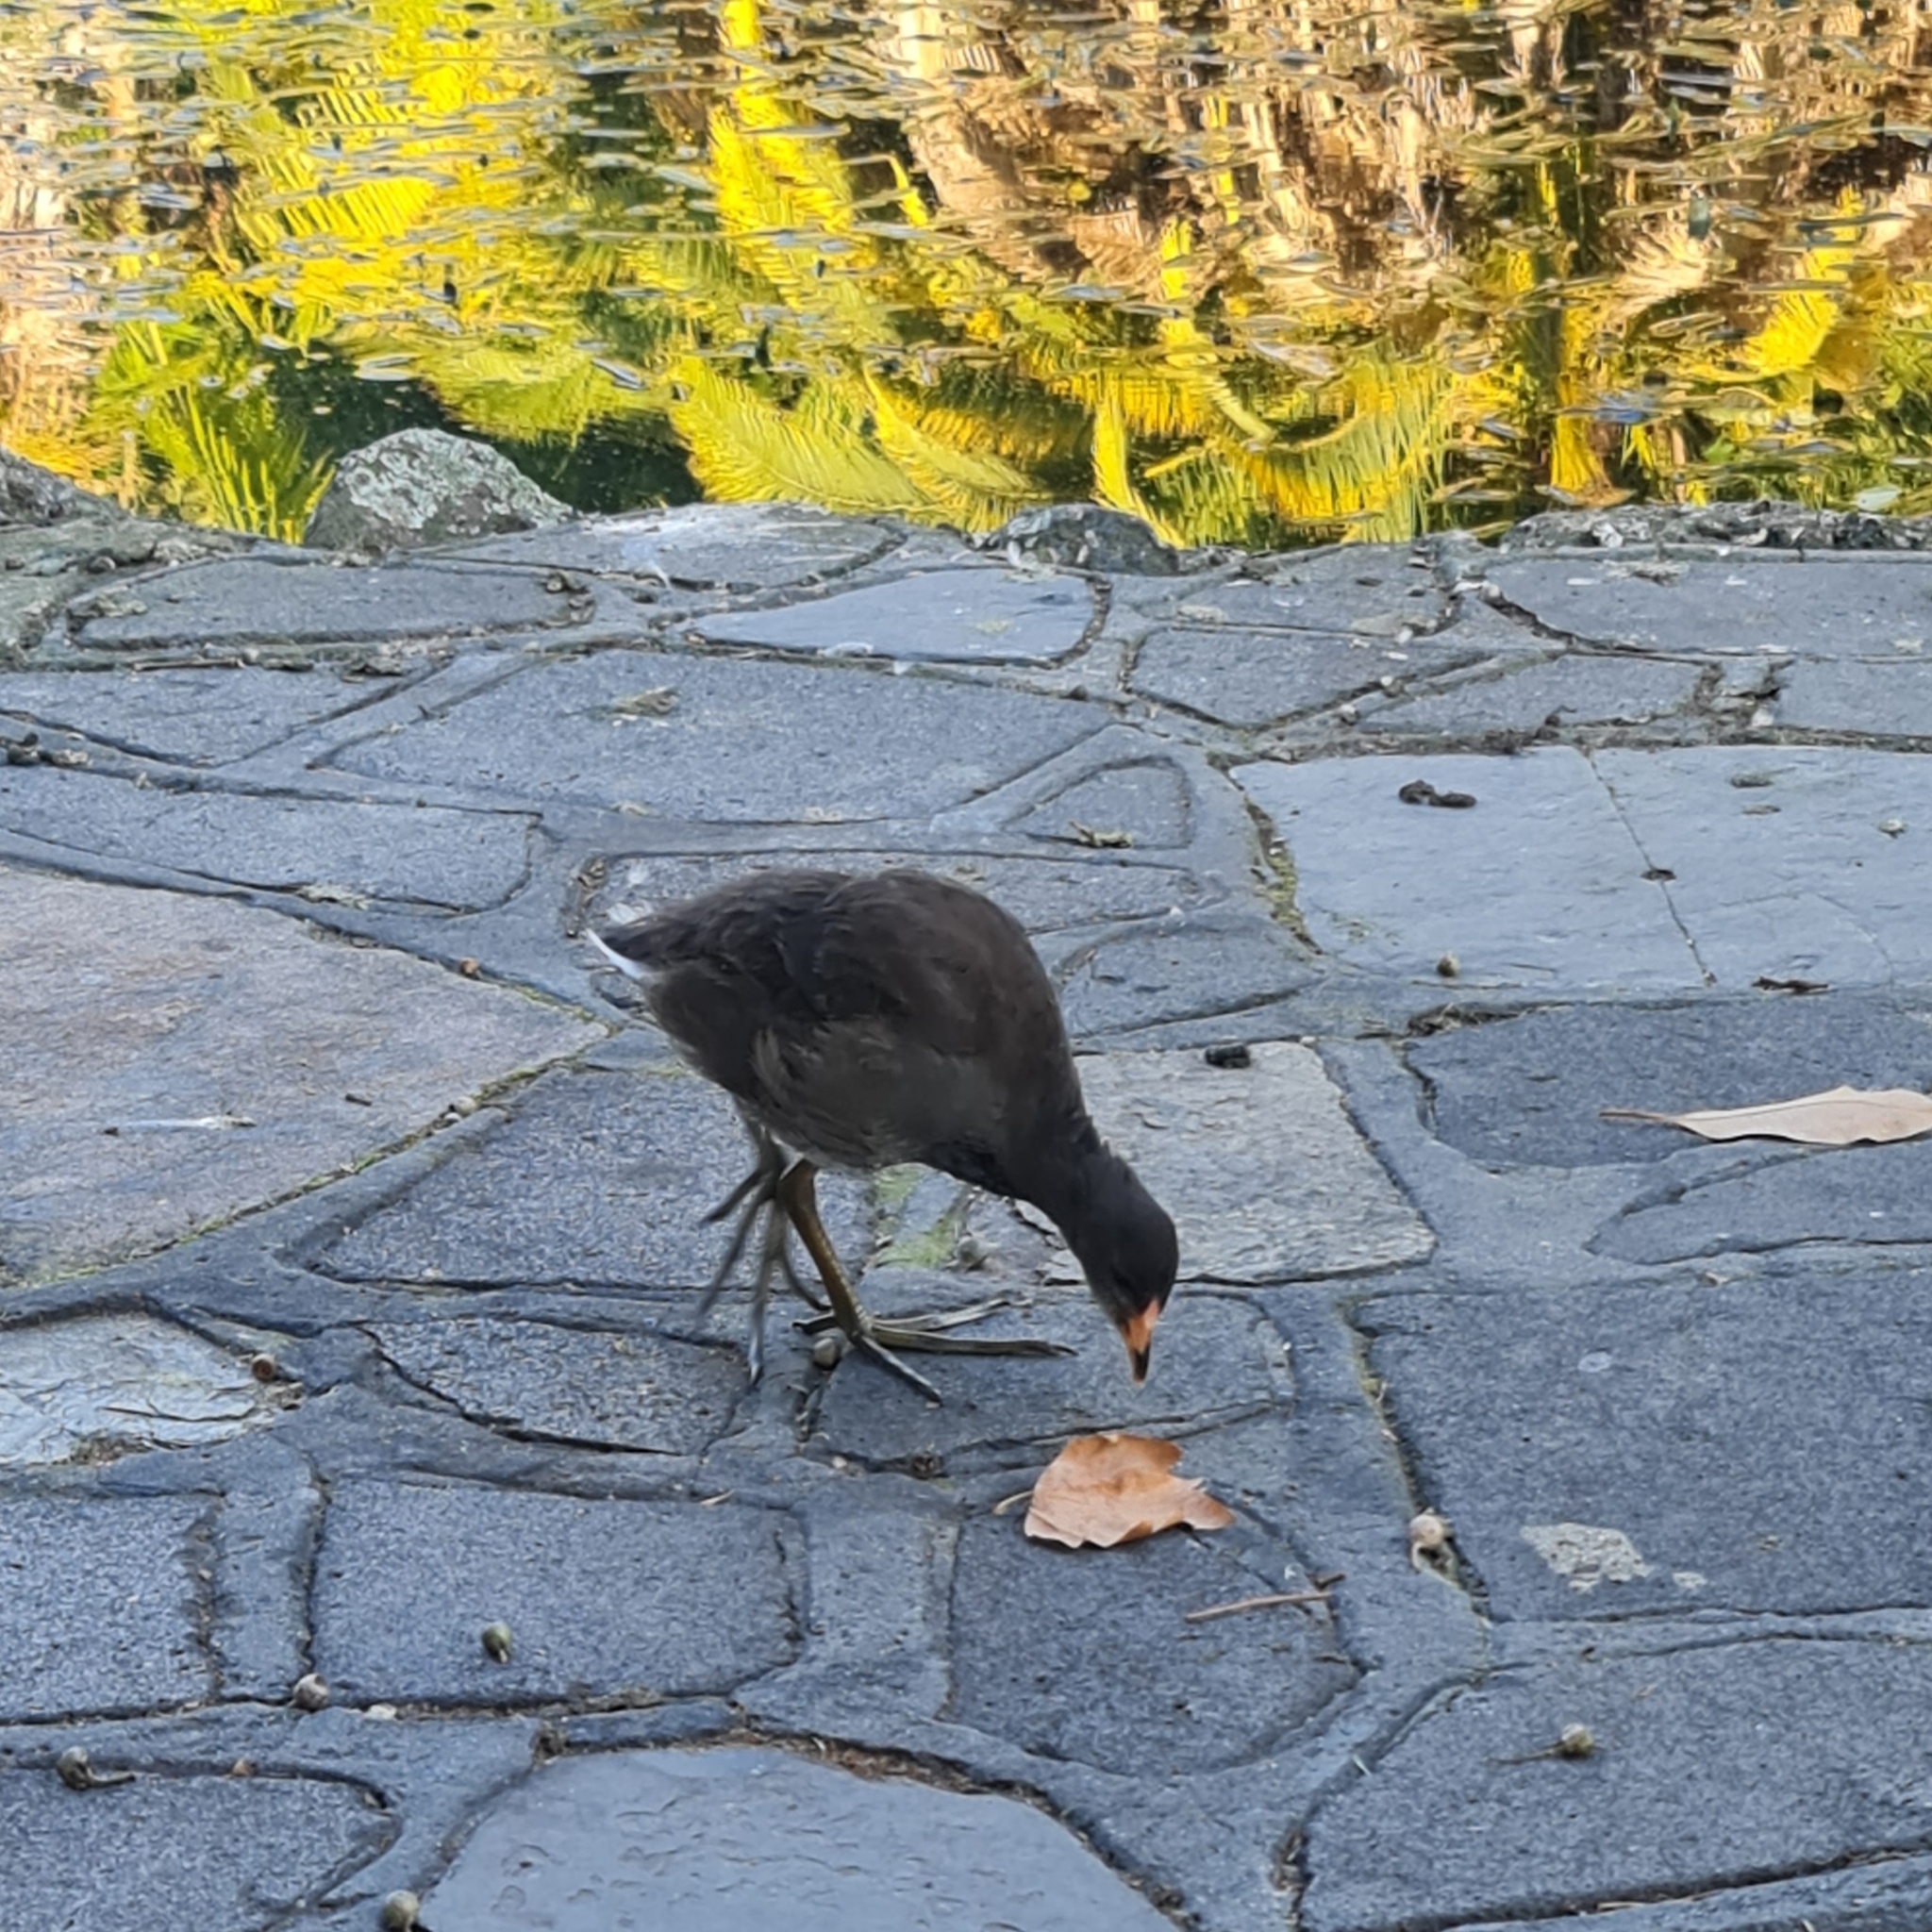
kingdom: Animalia
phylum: Chordata
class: Aves
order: Gruiformes
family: Rallidae
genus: Gallinula
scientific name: Gallinula tenebrosa
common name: Dusky moorhen
